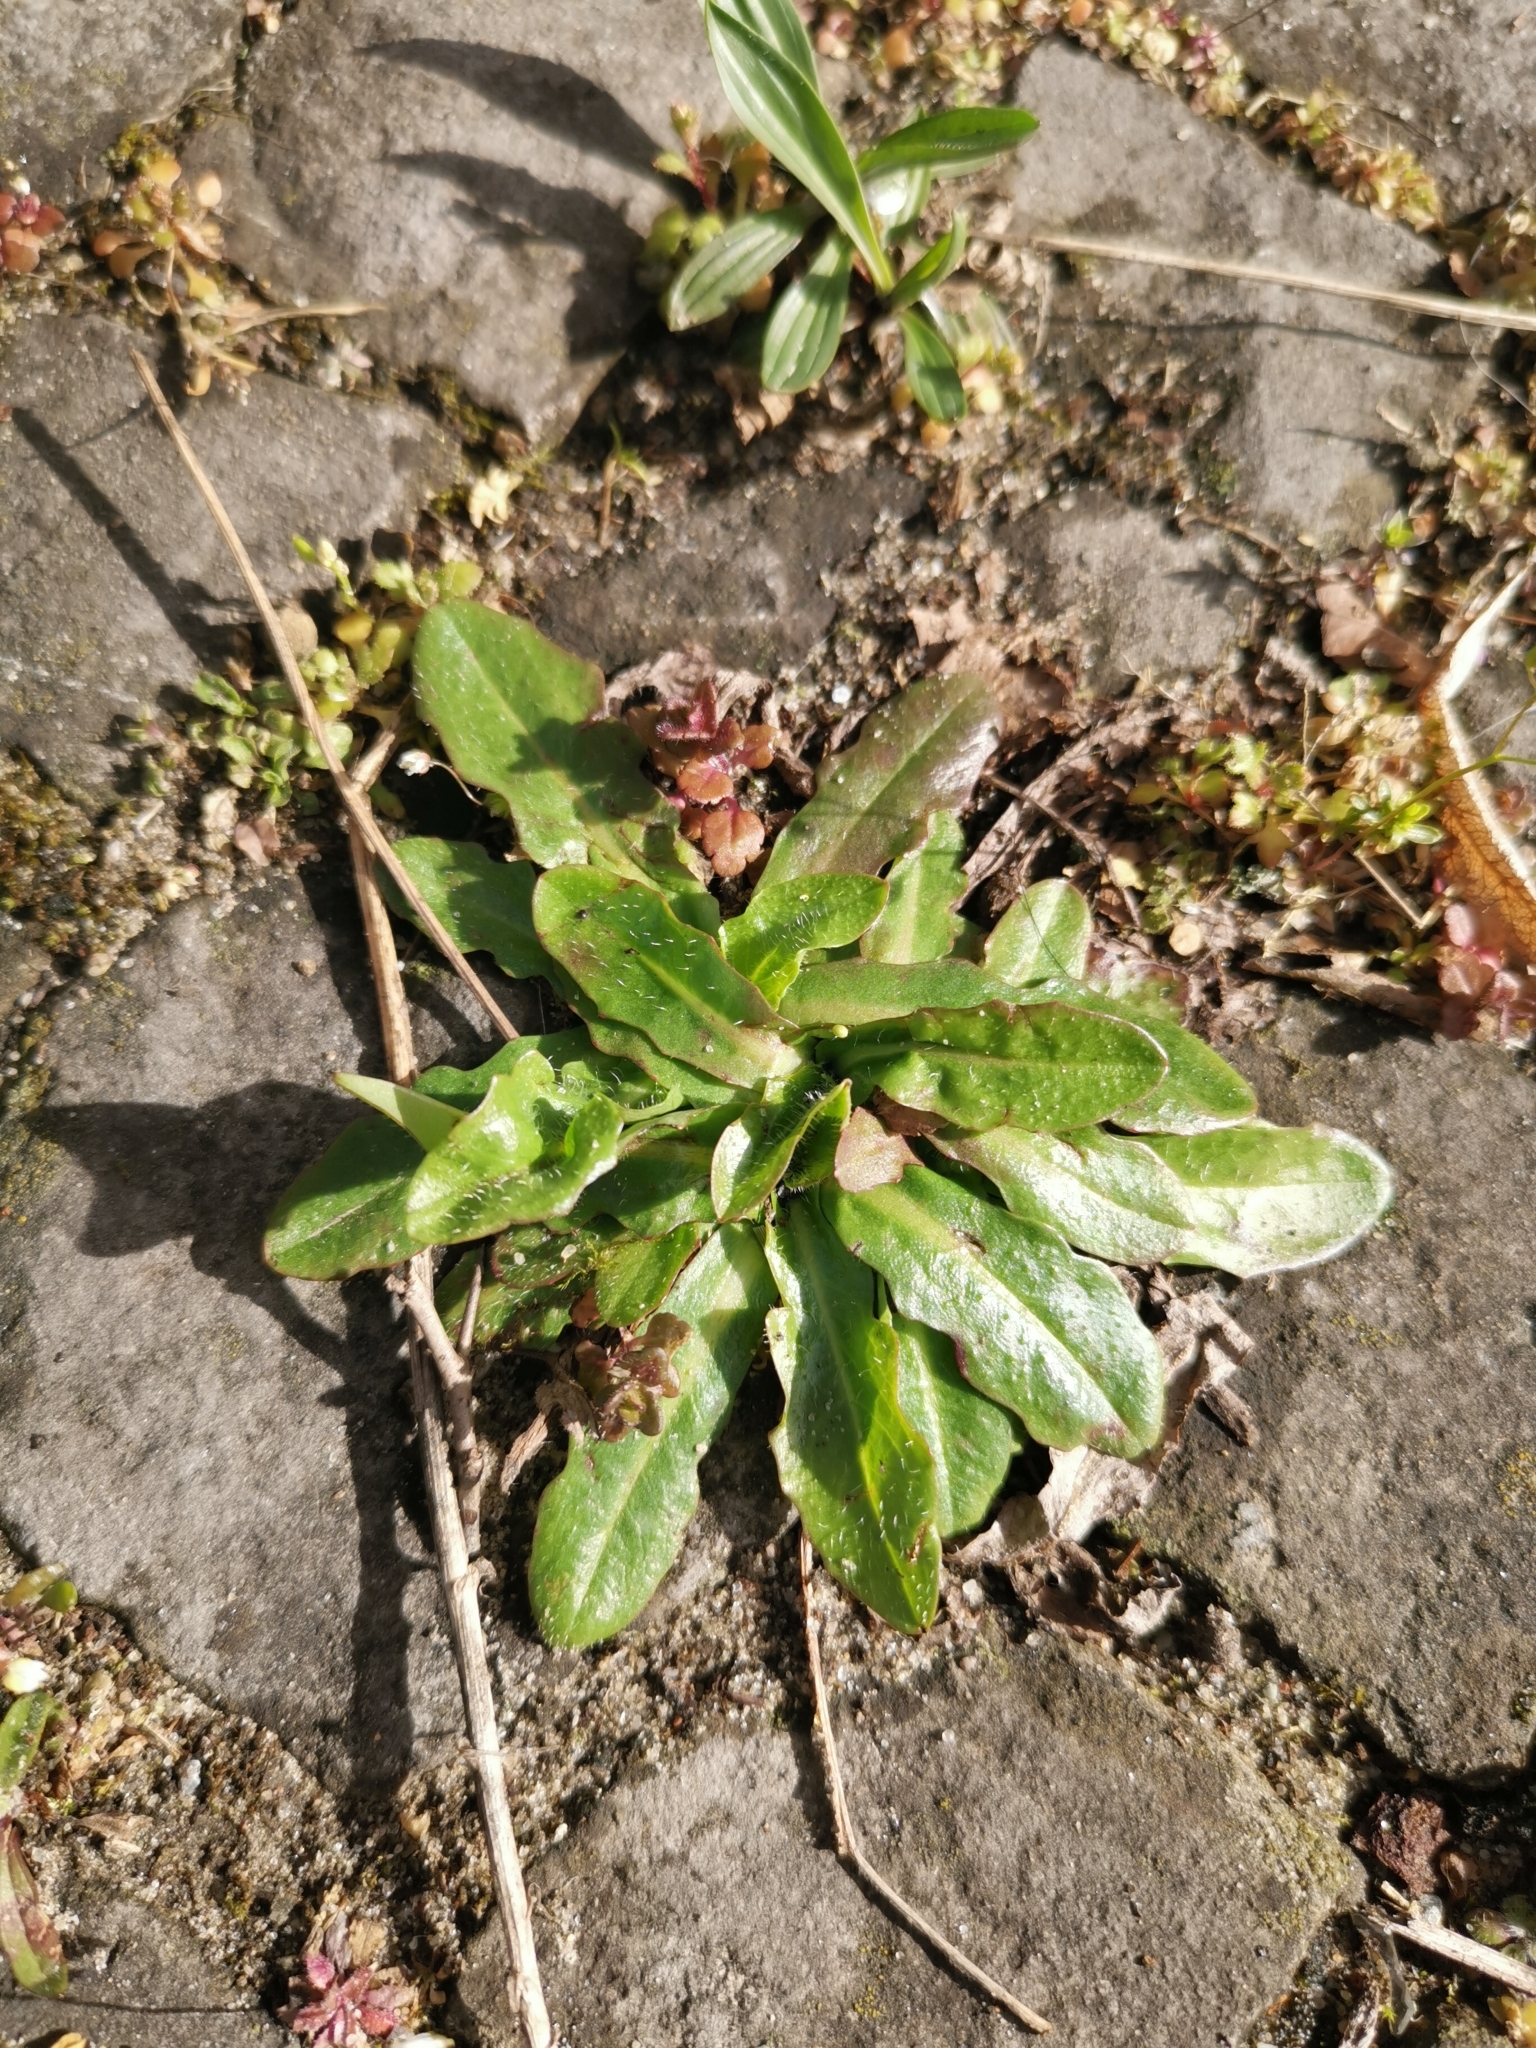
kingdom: Plantae
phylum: Tracheophyta
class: Magnoliopsida
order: Asterales
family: Asteraceae
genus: Hypochaeris
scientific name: Hypochaeris radicata
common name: Flatweed
